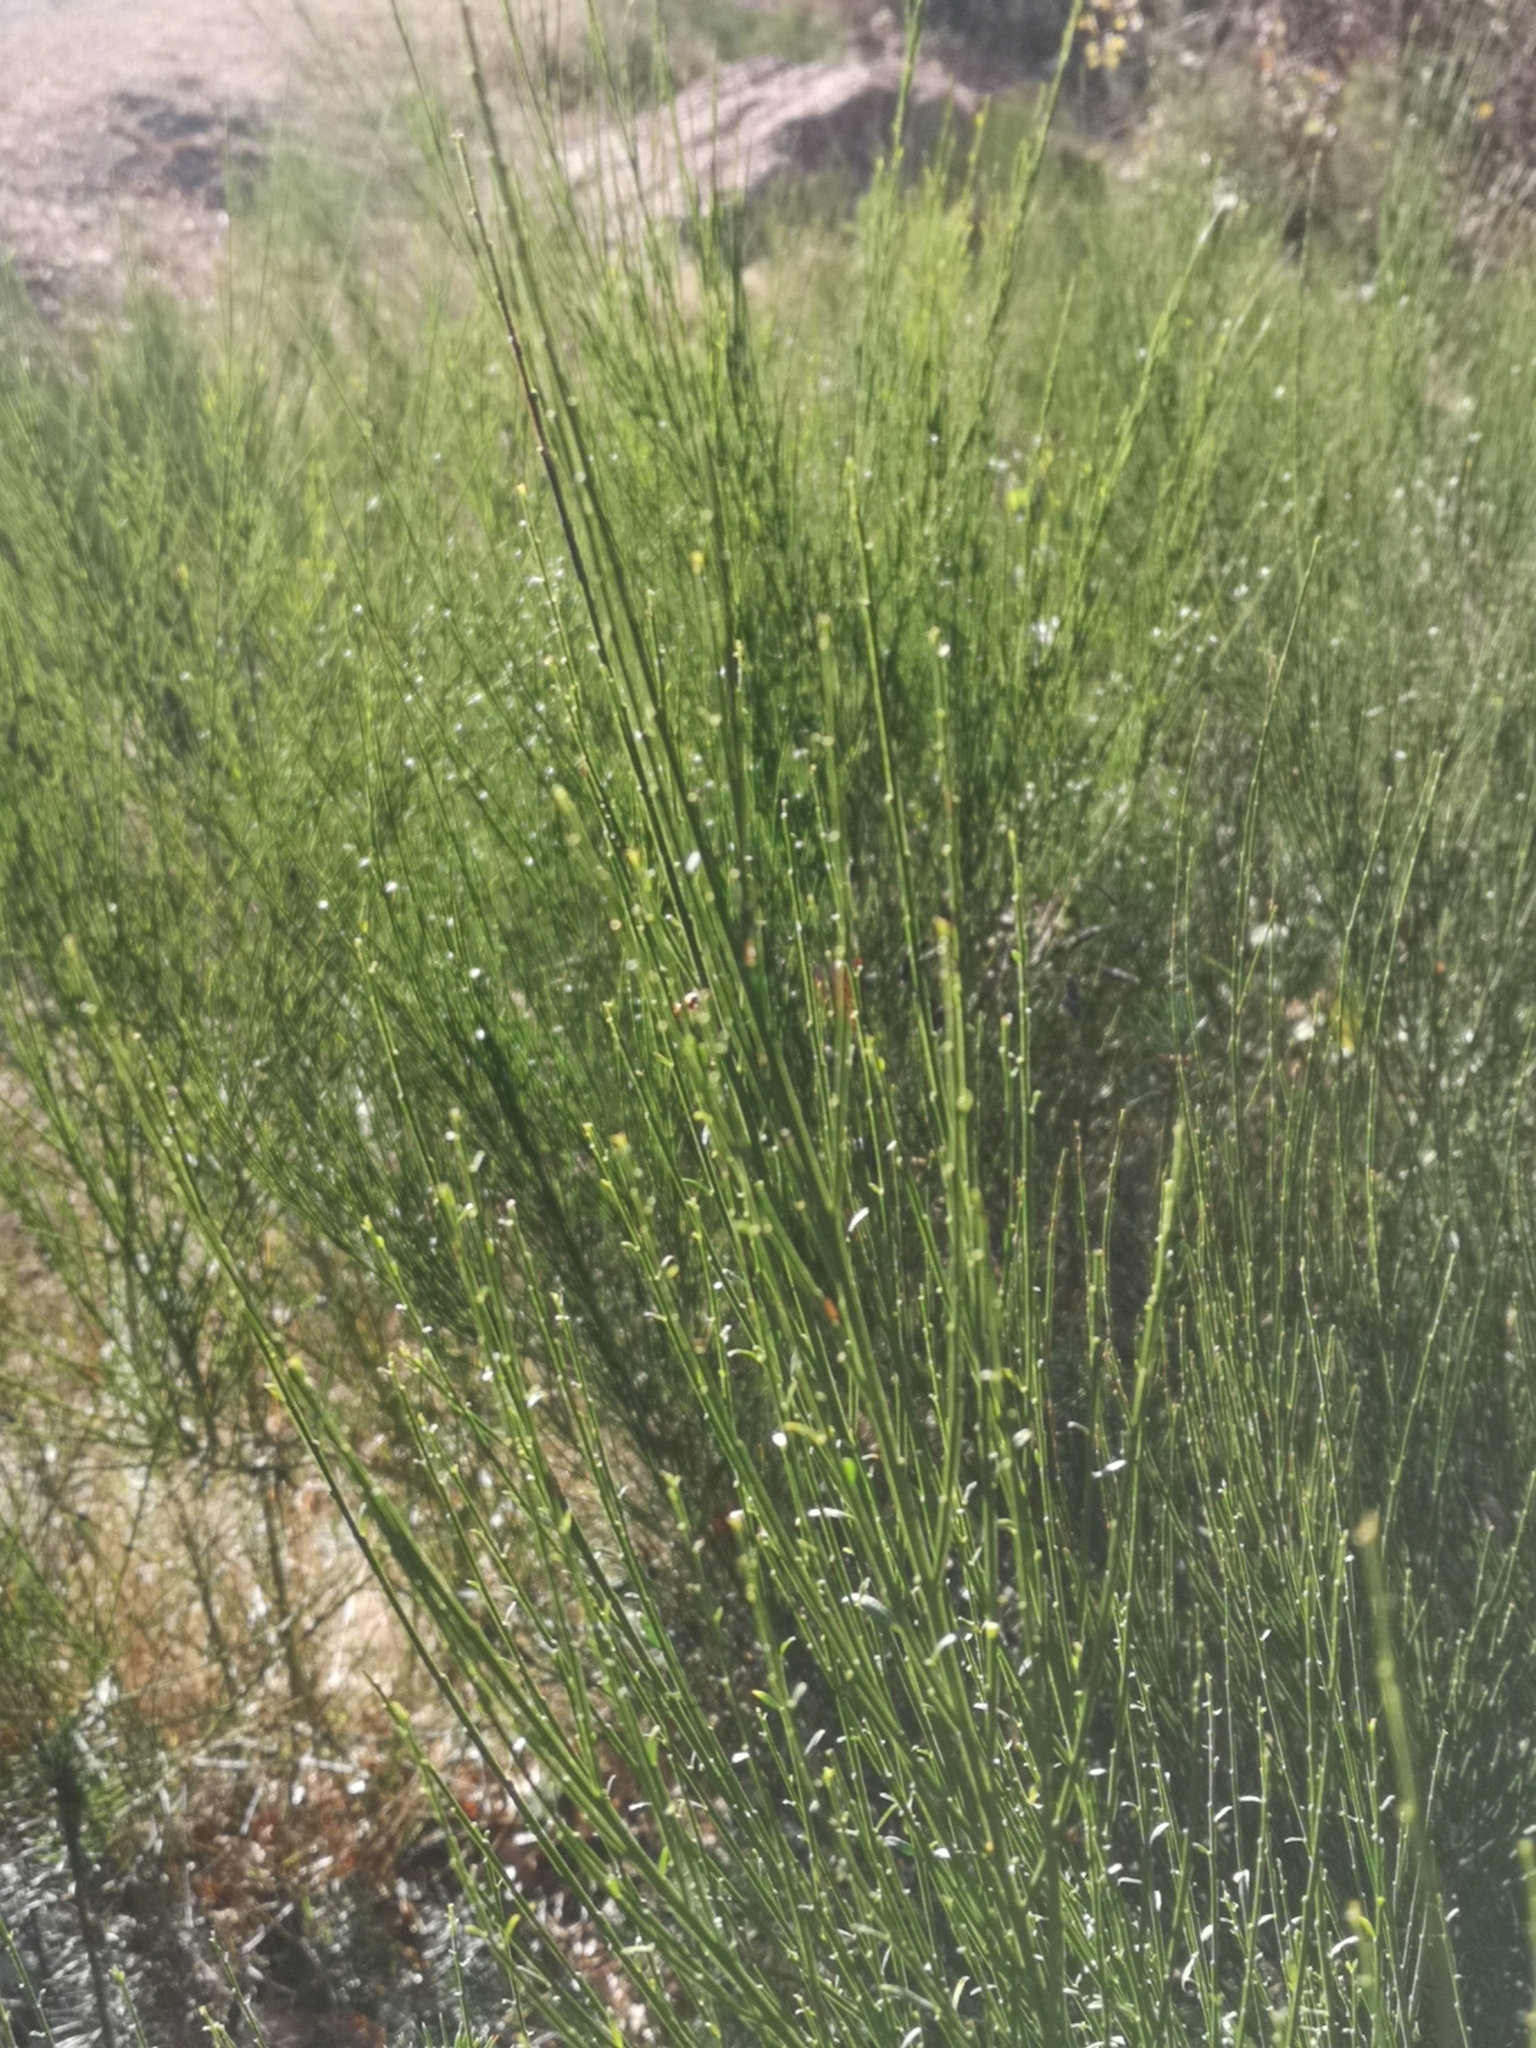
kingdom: Plantae
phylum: Tracheophyta
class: Magnoliopsida
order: Fabales
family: Fabaceae
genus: Cytisus
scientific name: Cytisus scoparius
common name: Scotch broom
